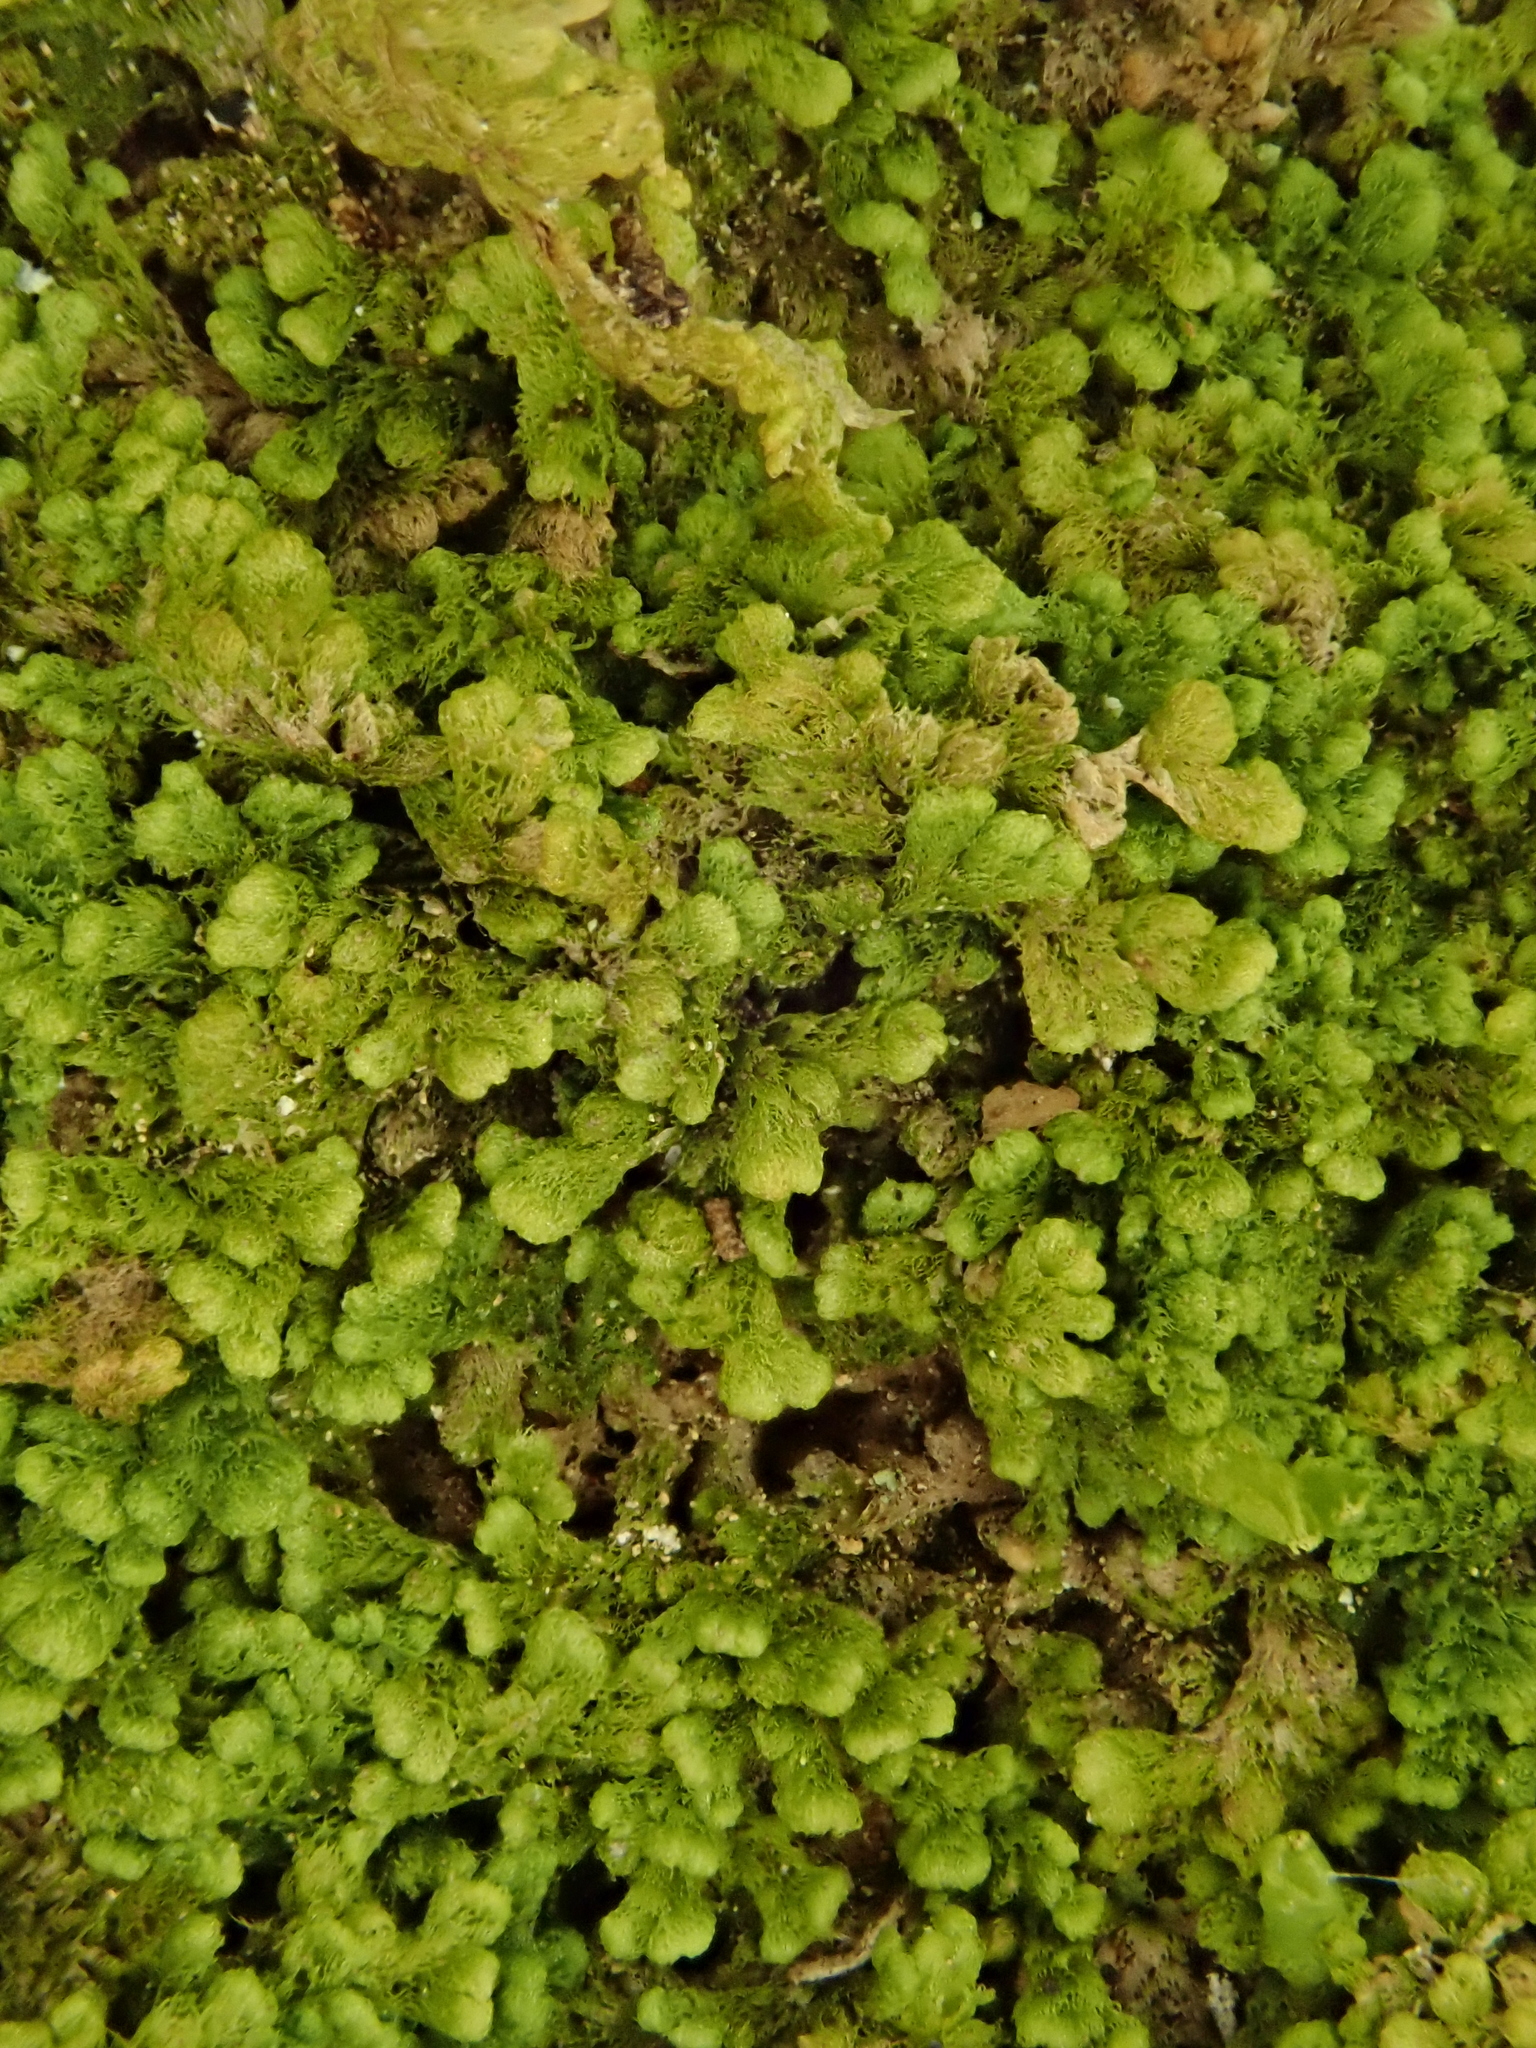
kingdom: Plantae
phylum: Marchantiophyta
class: Jungermanniopsida
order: Ptilidiales
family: Ptilidiaceae
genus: Ptilidium
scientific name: Ptilidium pulcherrimum
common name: Tree fringewort
